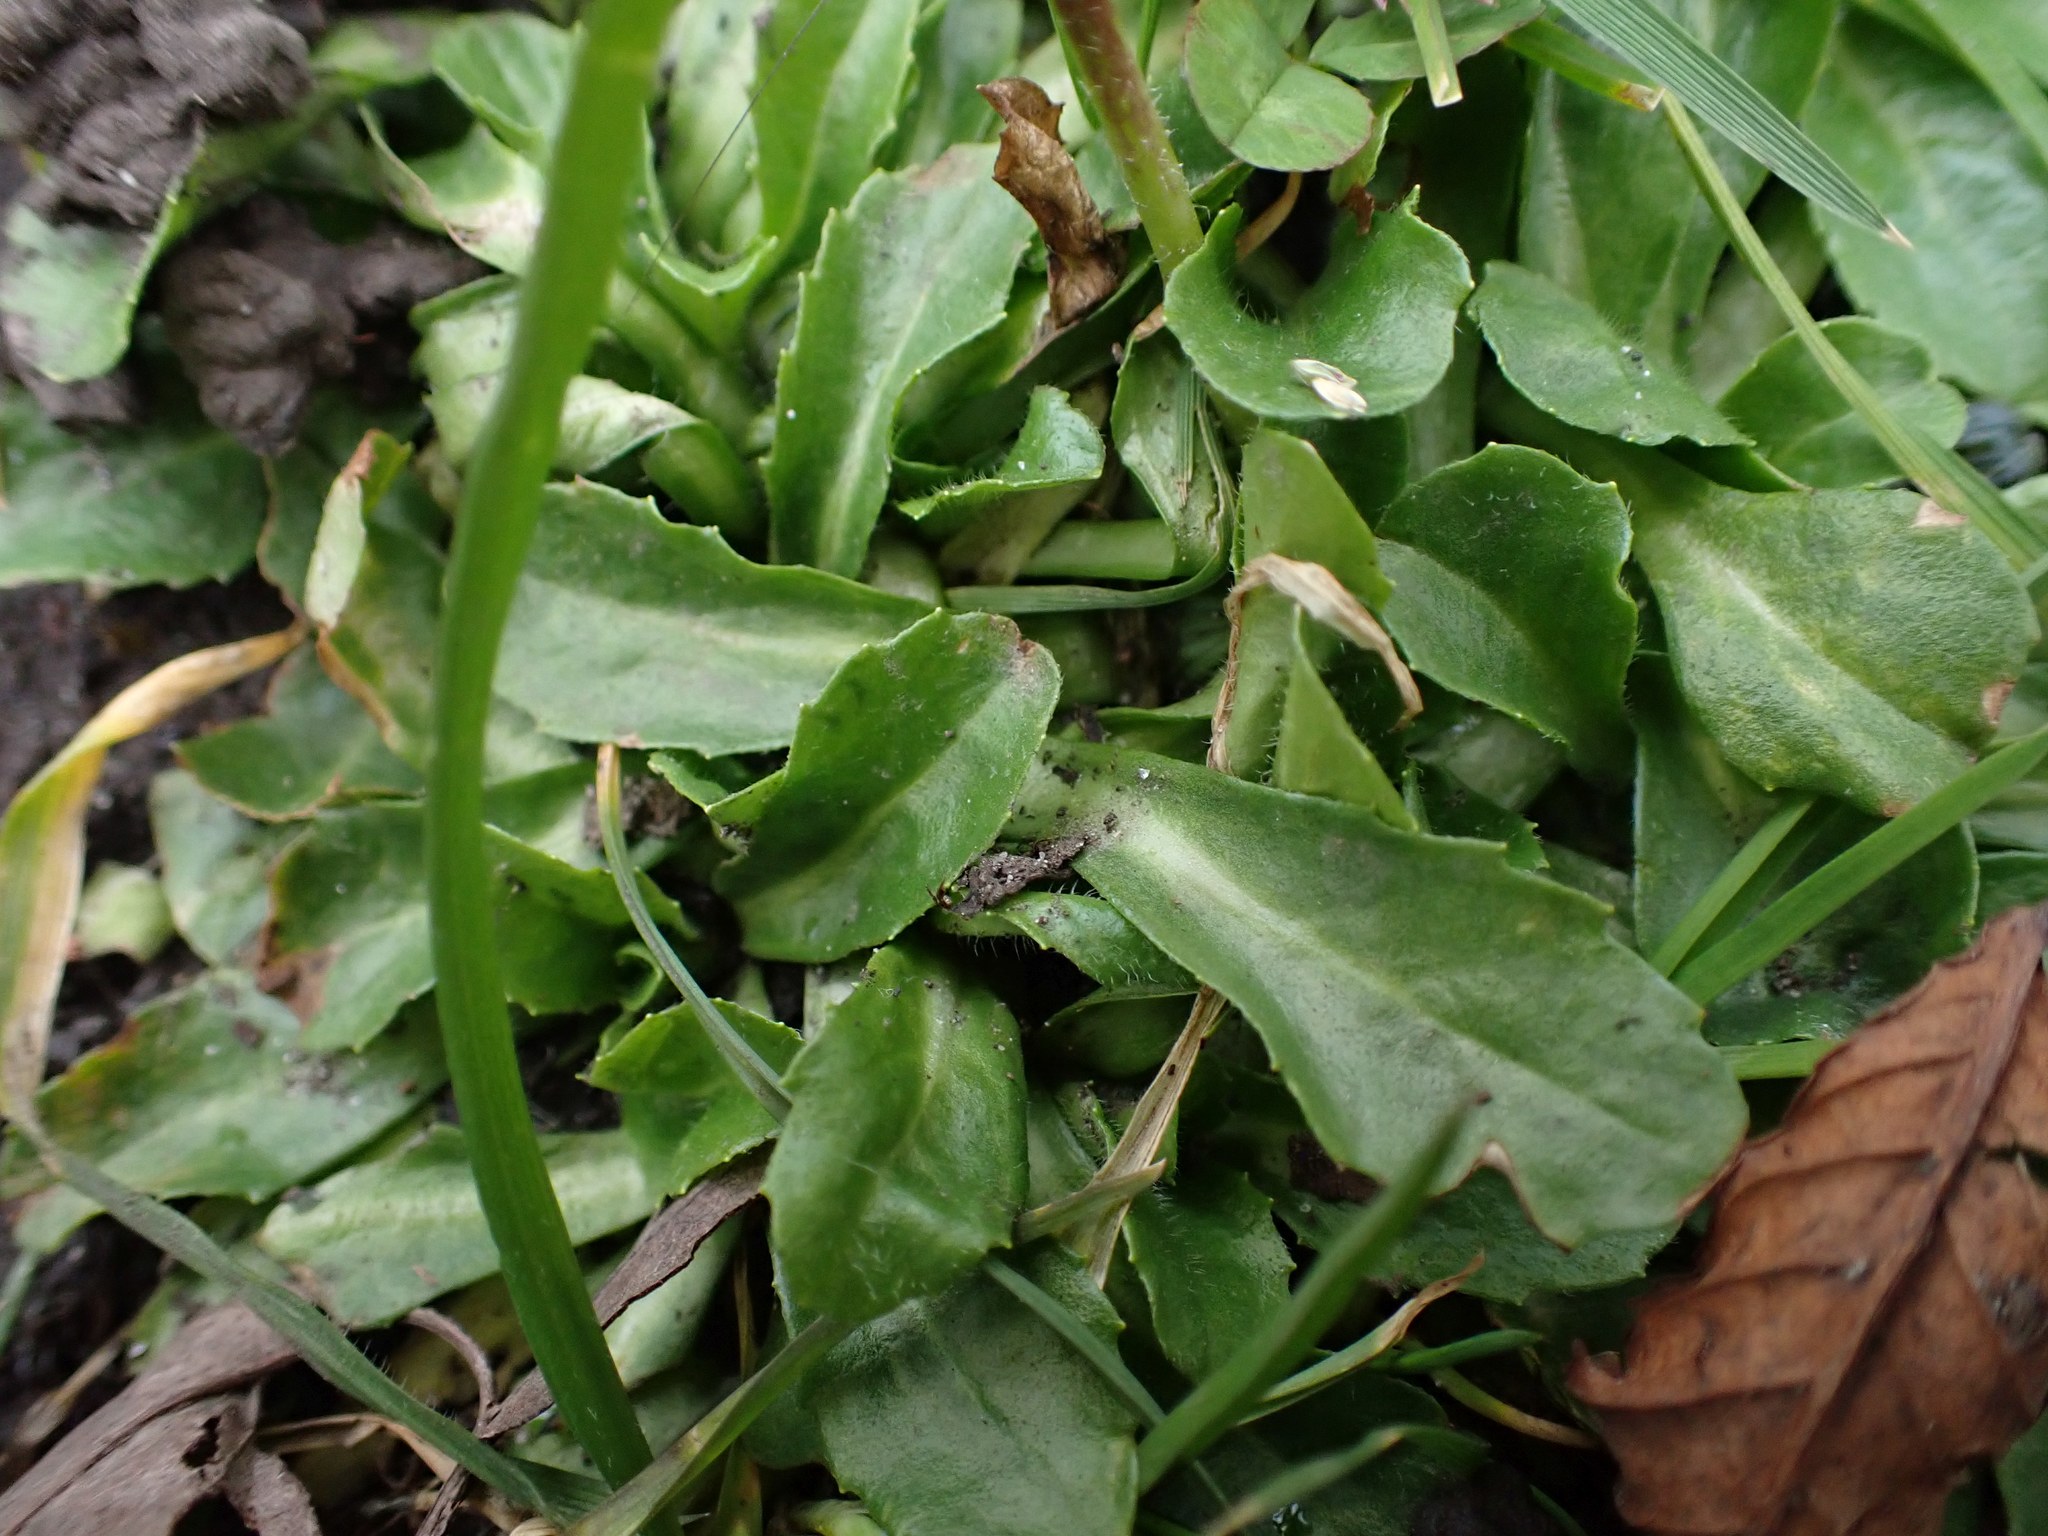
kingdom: Plantae
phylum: Tracheophyta
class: Magnoliopsida
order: Asterales
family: Asteraceae
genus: Bellis
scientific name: Bellis perennis
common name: Lawndaisy
